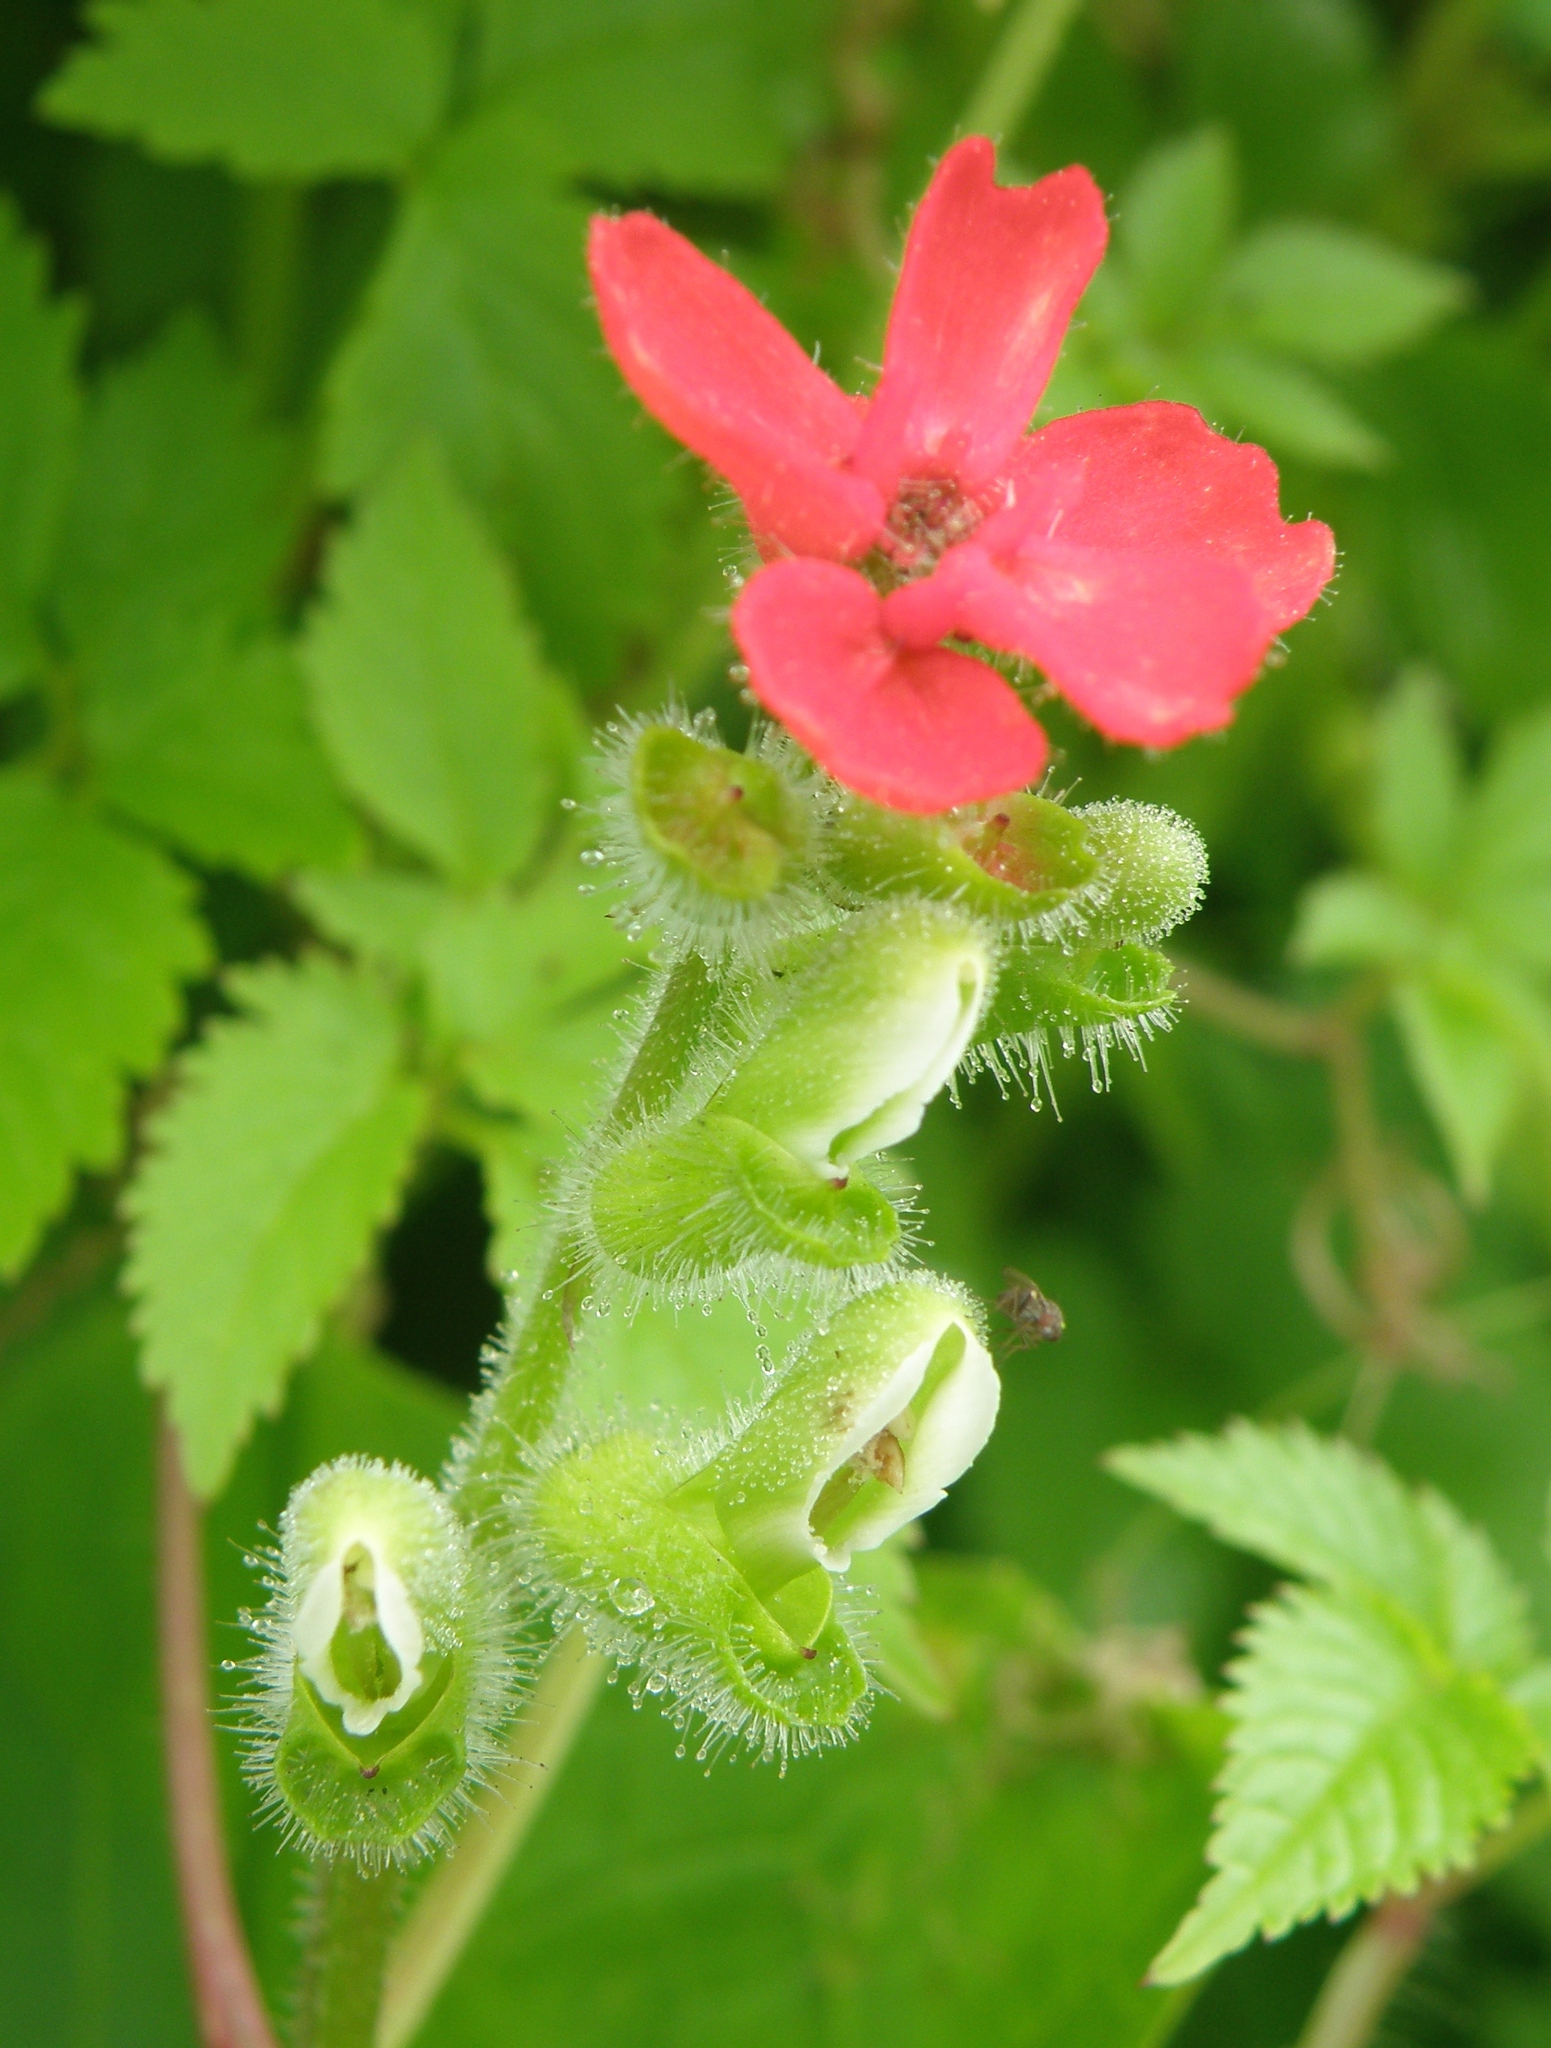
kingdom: Plantae
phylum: Tracheophyta
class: Magnoliopsida
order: Lamiales
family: Bignoniaceae
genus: Tourrettia
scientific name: Tourrettia lappacea
